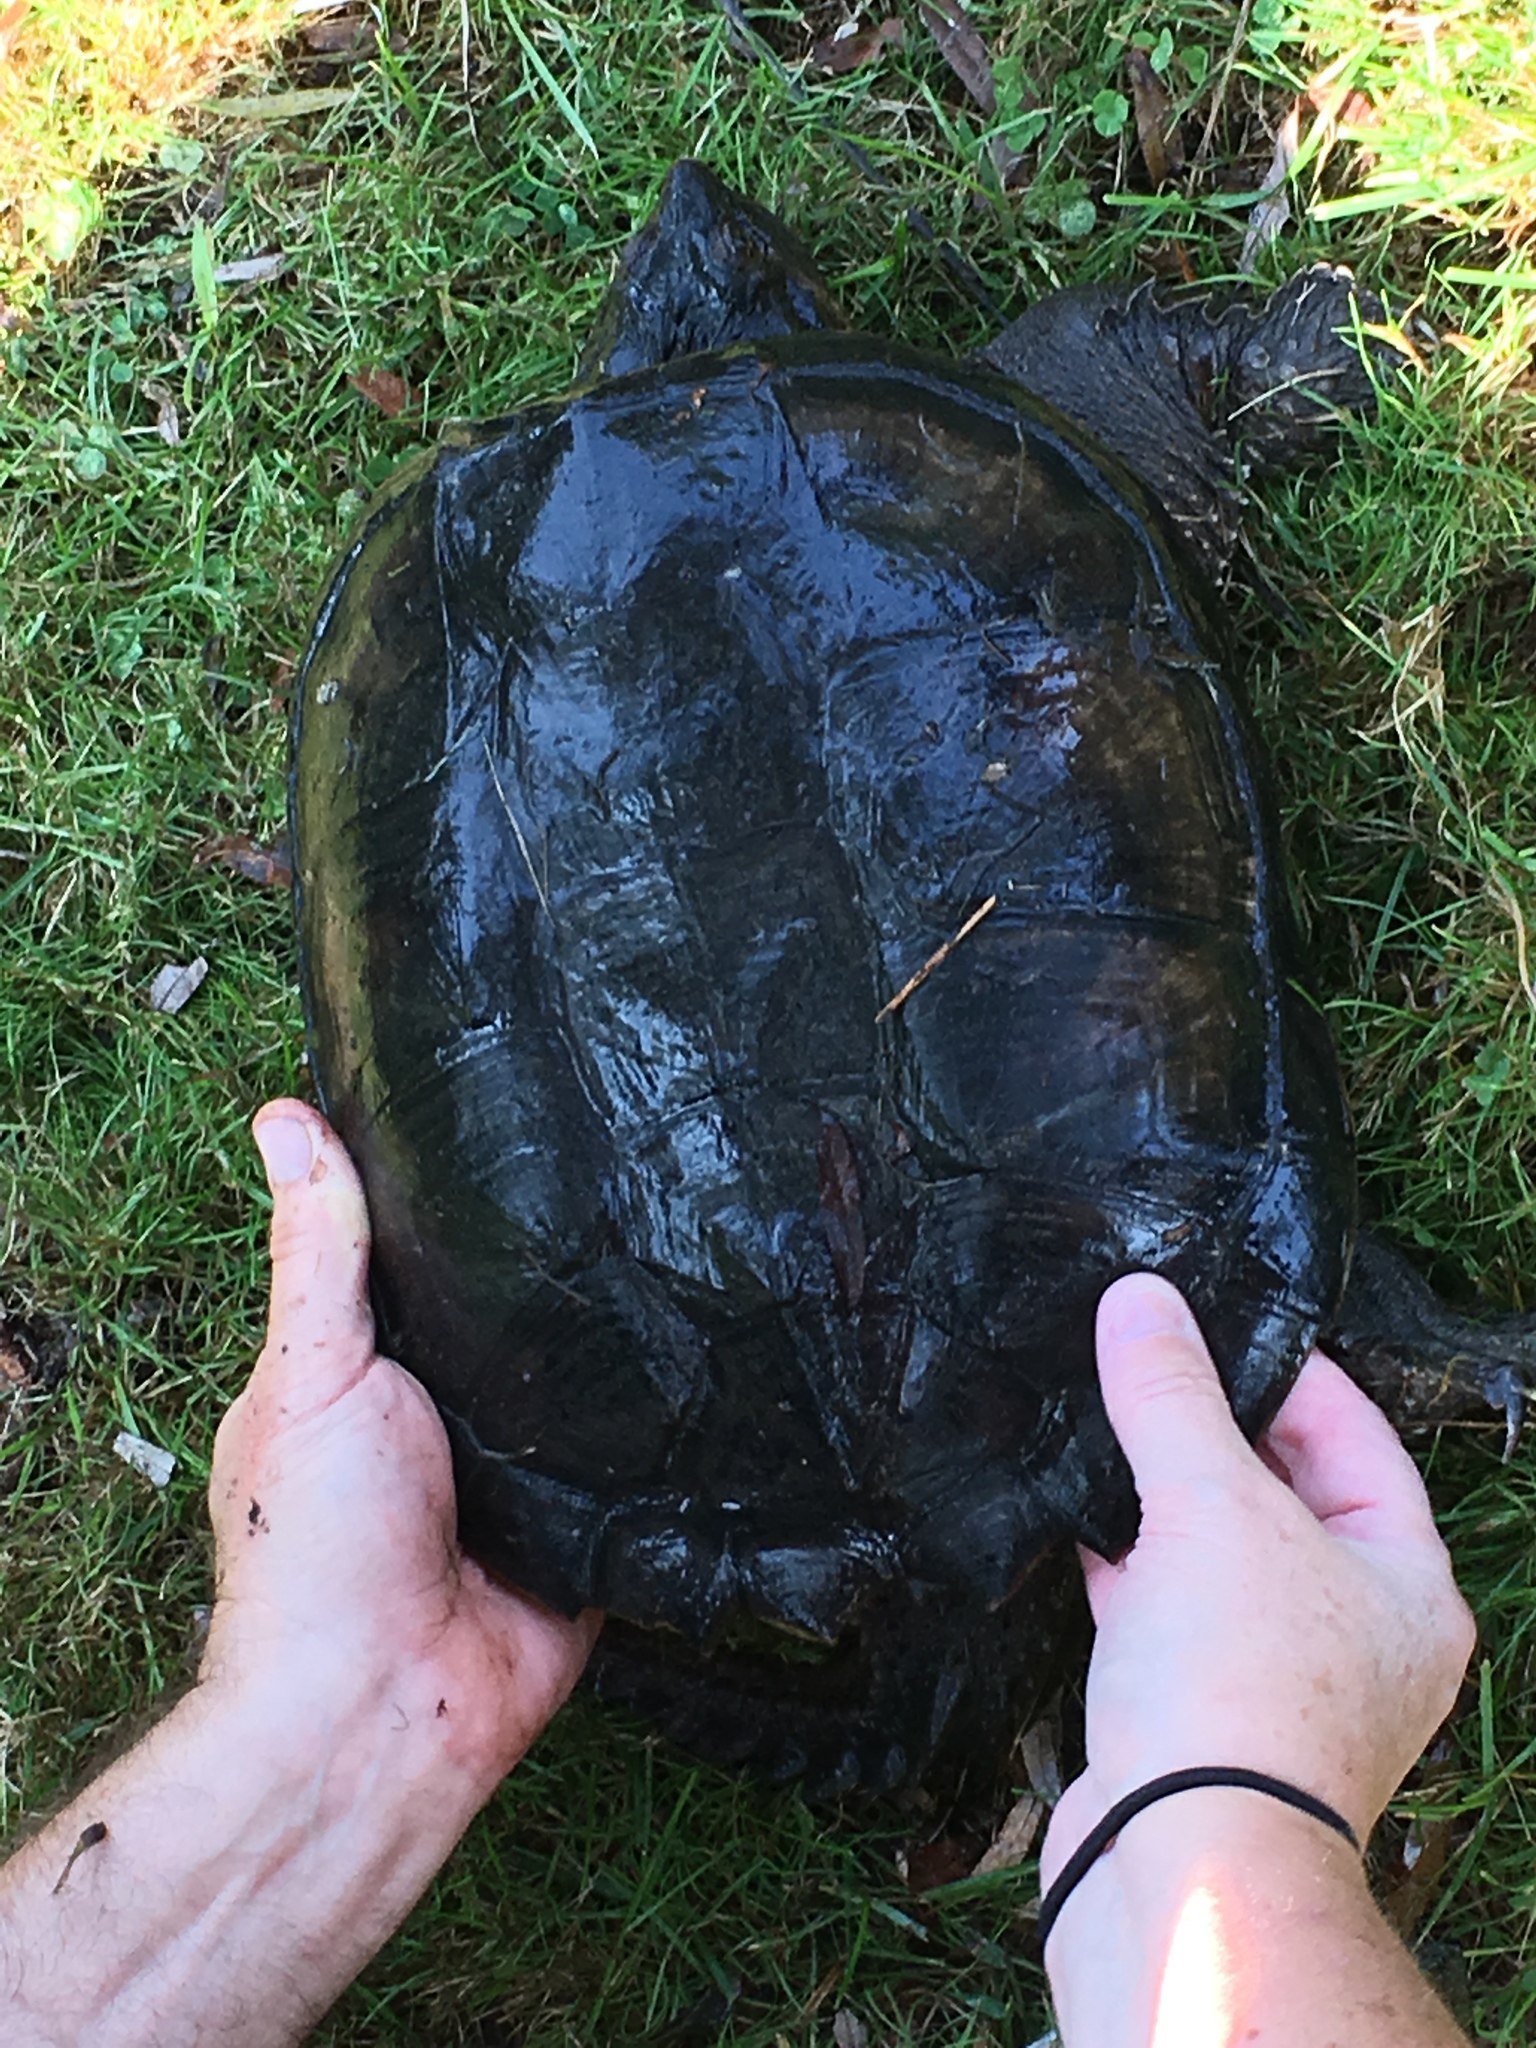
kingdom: Animalia
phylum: Chordata
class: Testudines
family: Chelydridae
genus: Chelydra
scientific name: Chelydra serpentina
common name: Common snapping turtle
